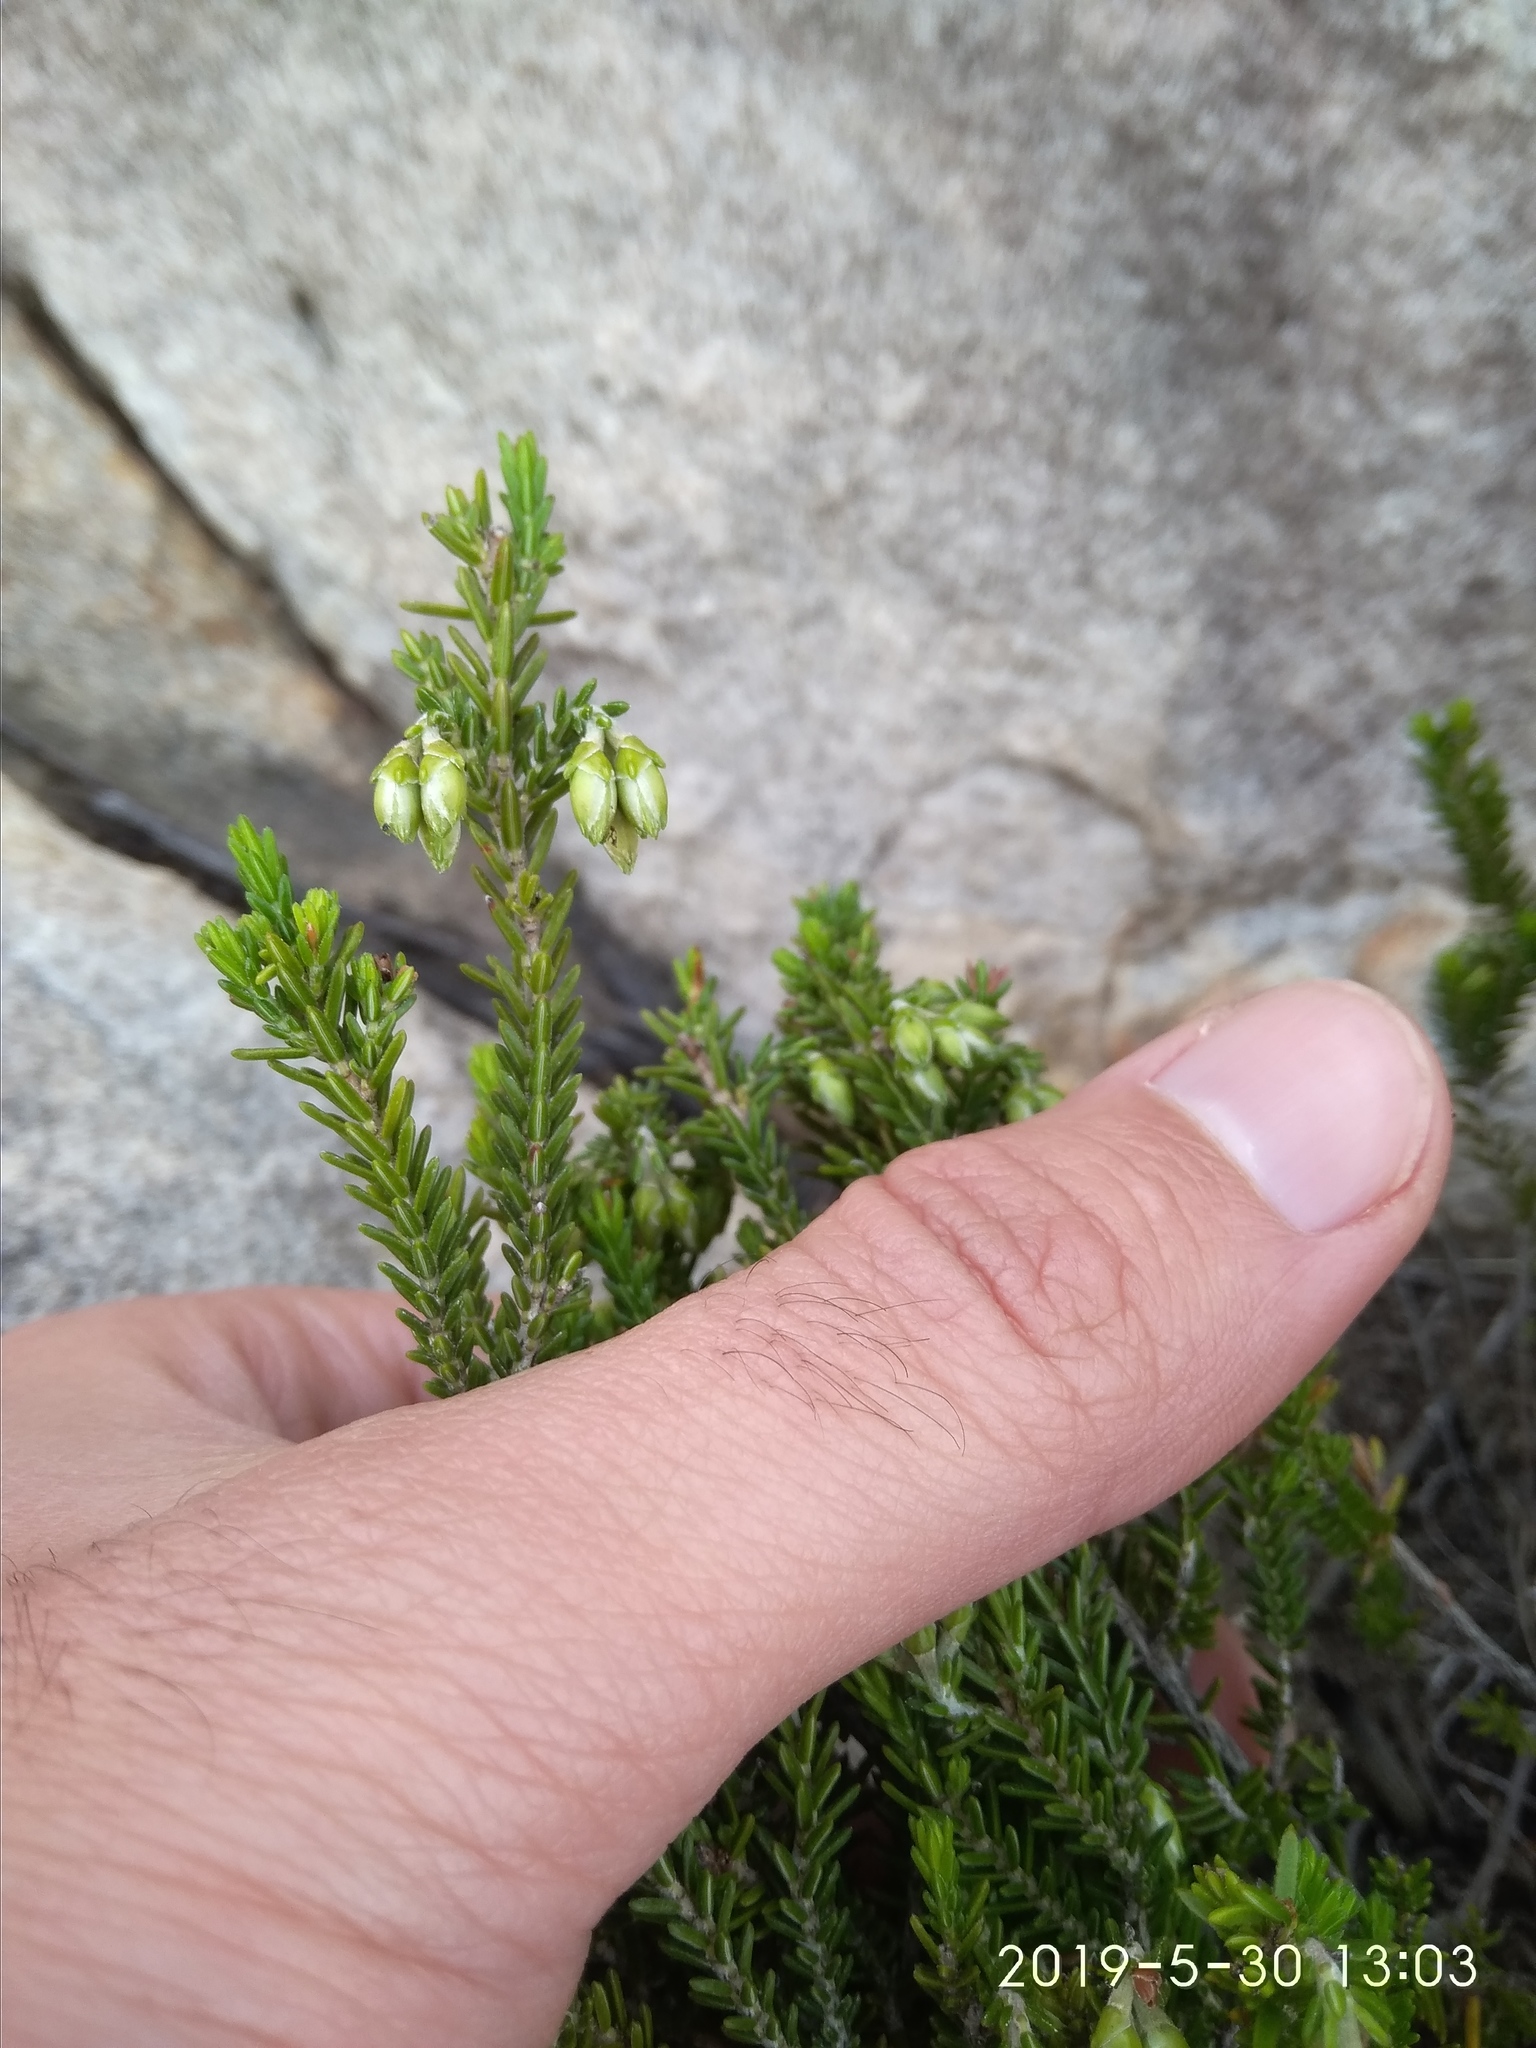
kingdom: Plantae
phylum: Tracheophyta
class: Magnoliopsida
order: Ericales
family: Ericaceae
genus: Erica
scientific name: Erica viridiflora
